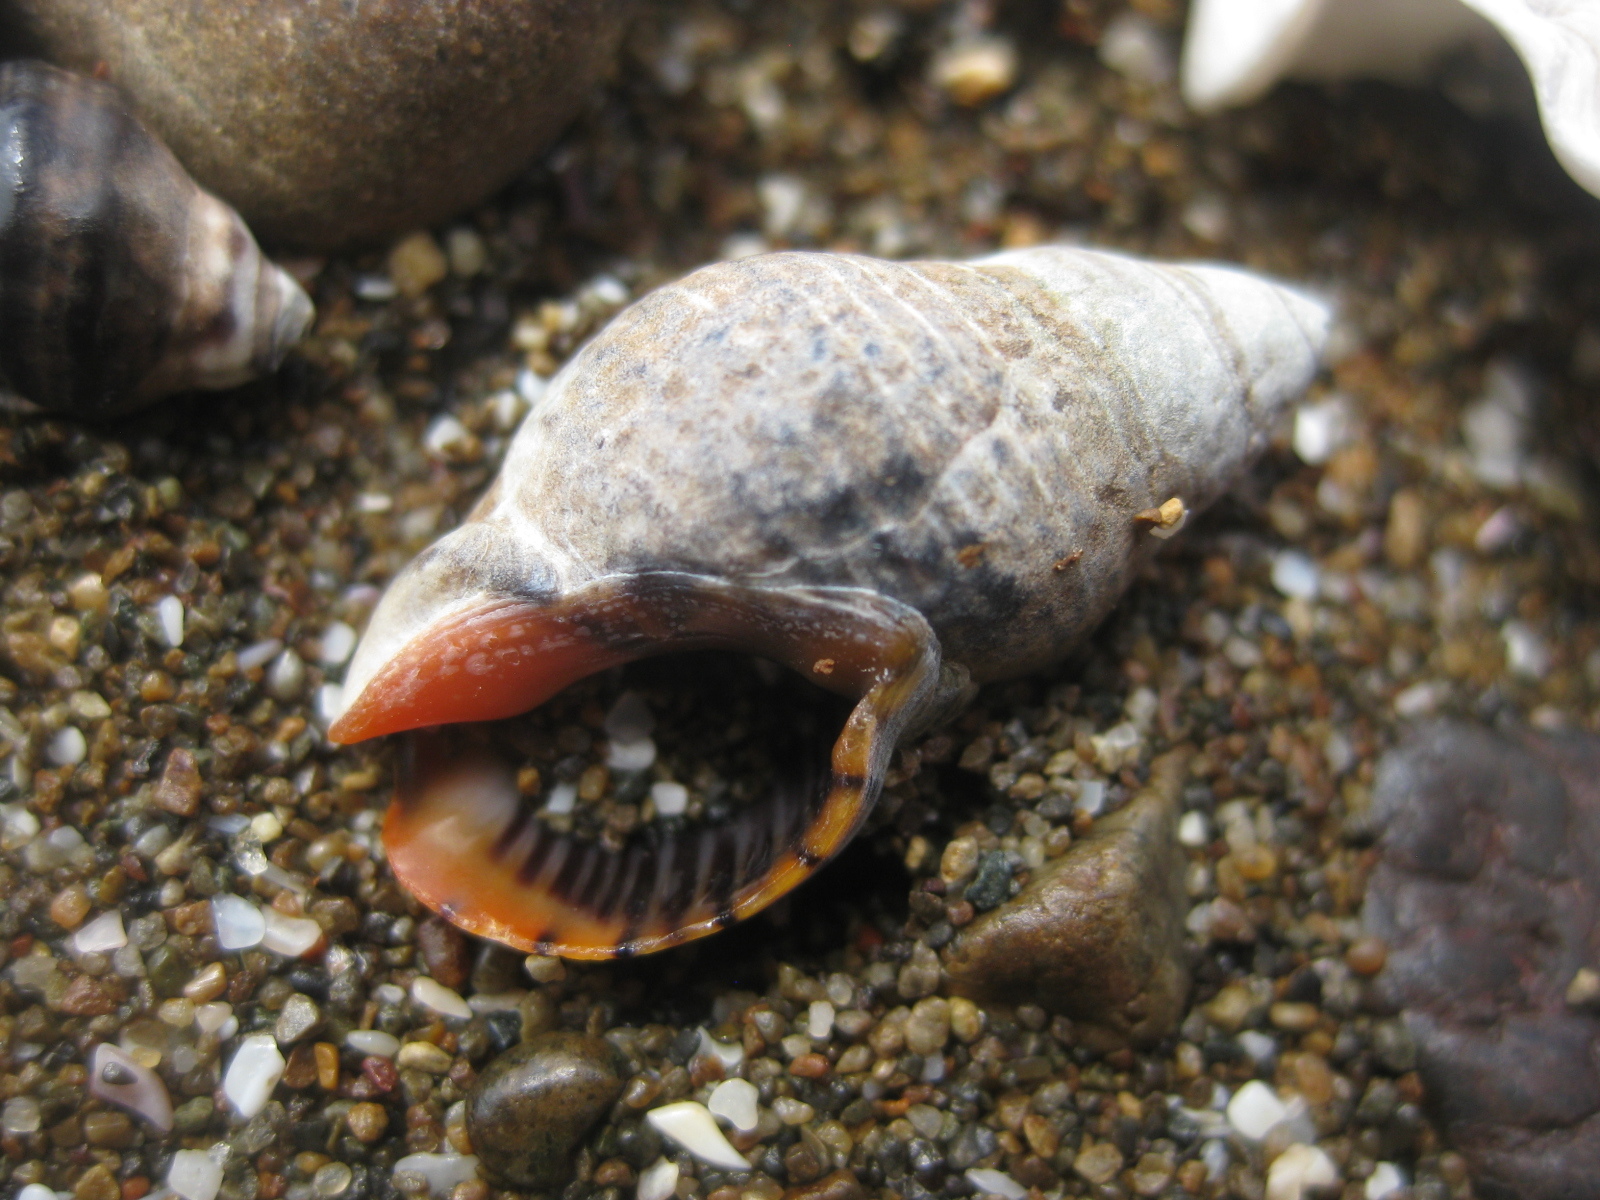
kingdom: Animalia
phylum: Mollusca
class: Gastropoda
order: Neogastropoda
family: Cominellidae
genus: Cominella
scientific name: Cominella virgata
